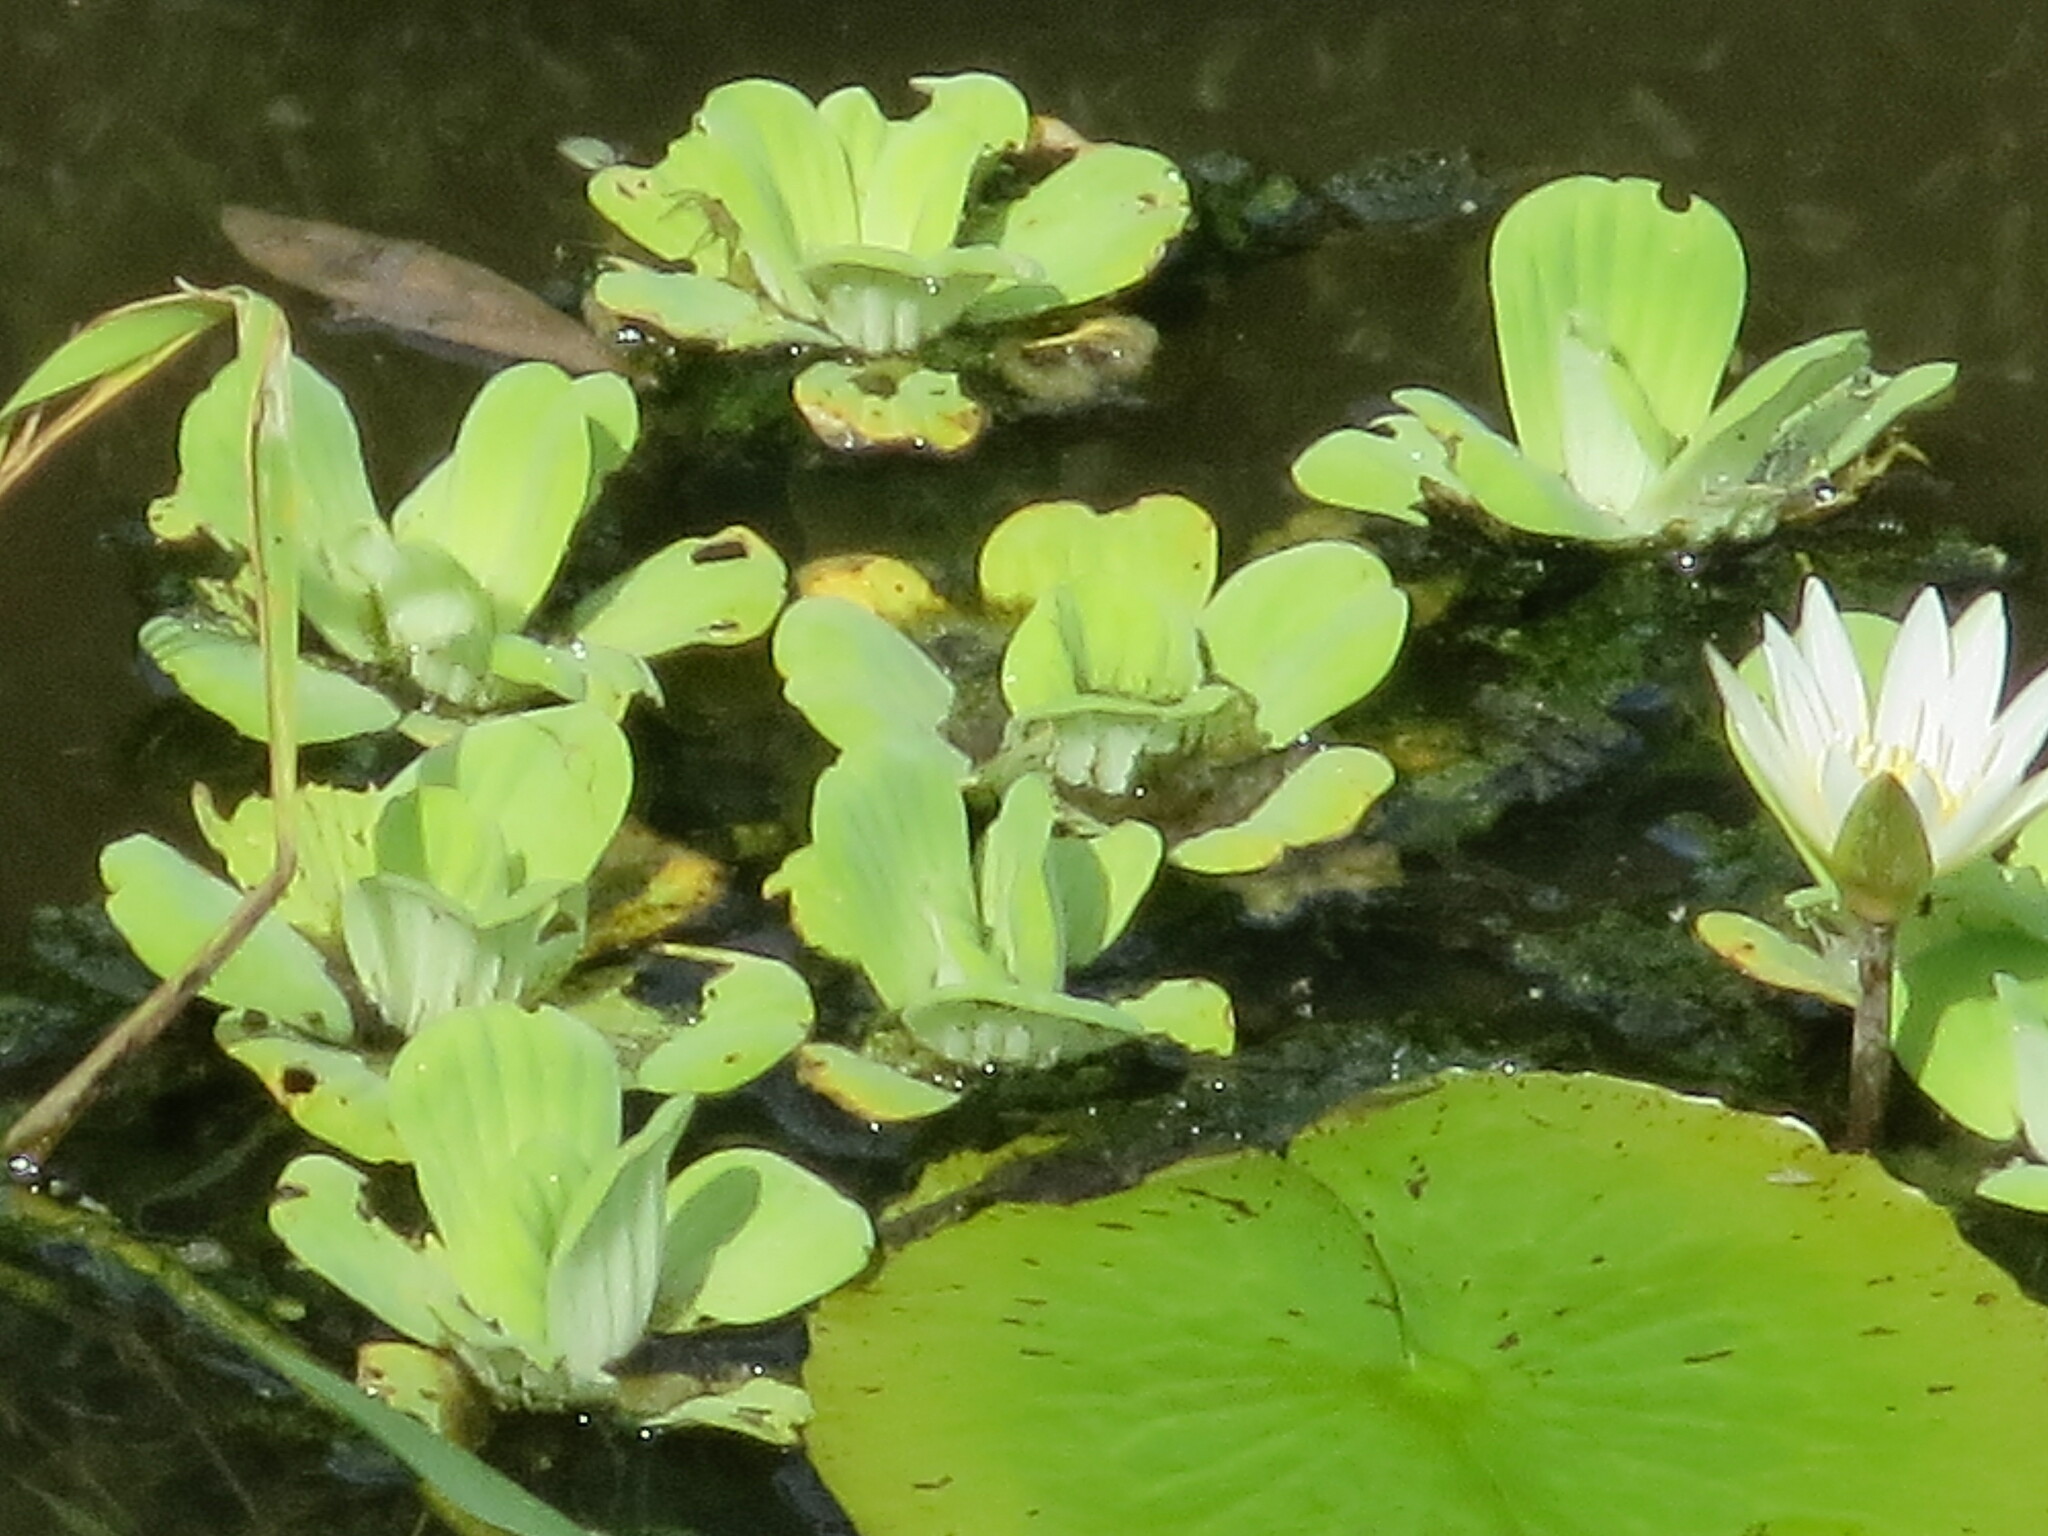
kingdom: Plantae
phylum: Tracheophyta
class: Liliopsida
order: Alismatales
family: Araceae
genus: Pistia
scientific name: Pistia stratiotes
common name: Water lettuce
